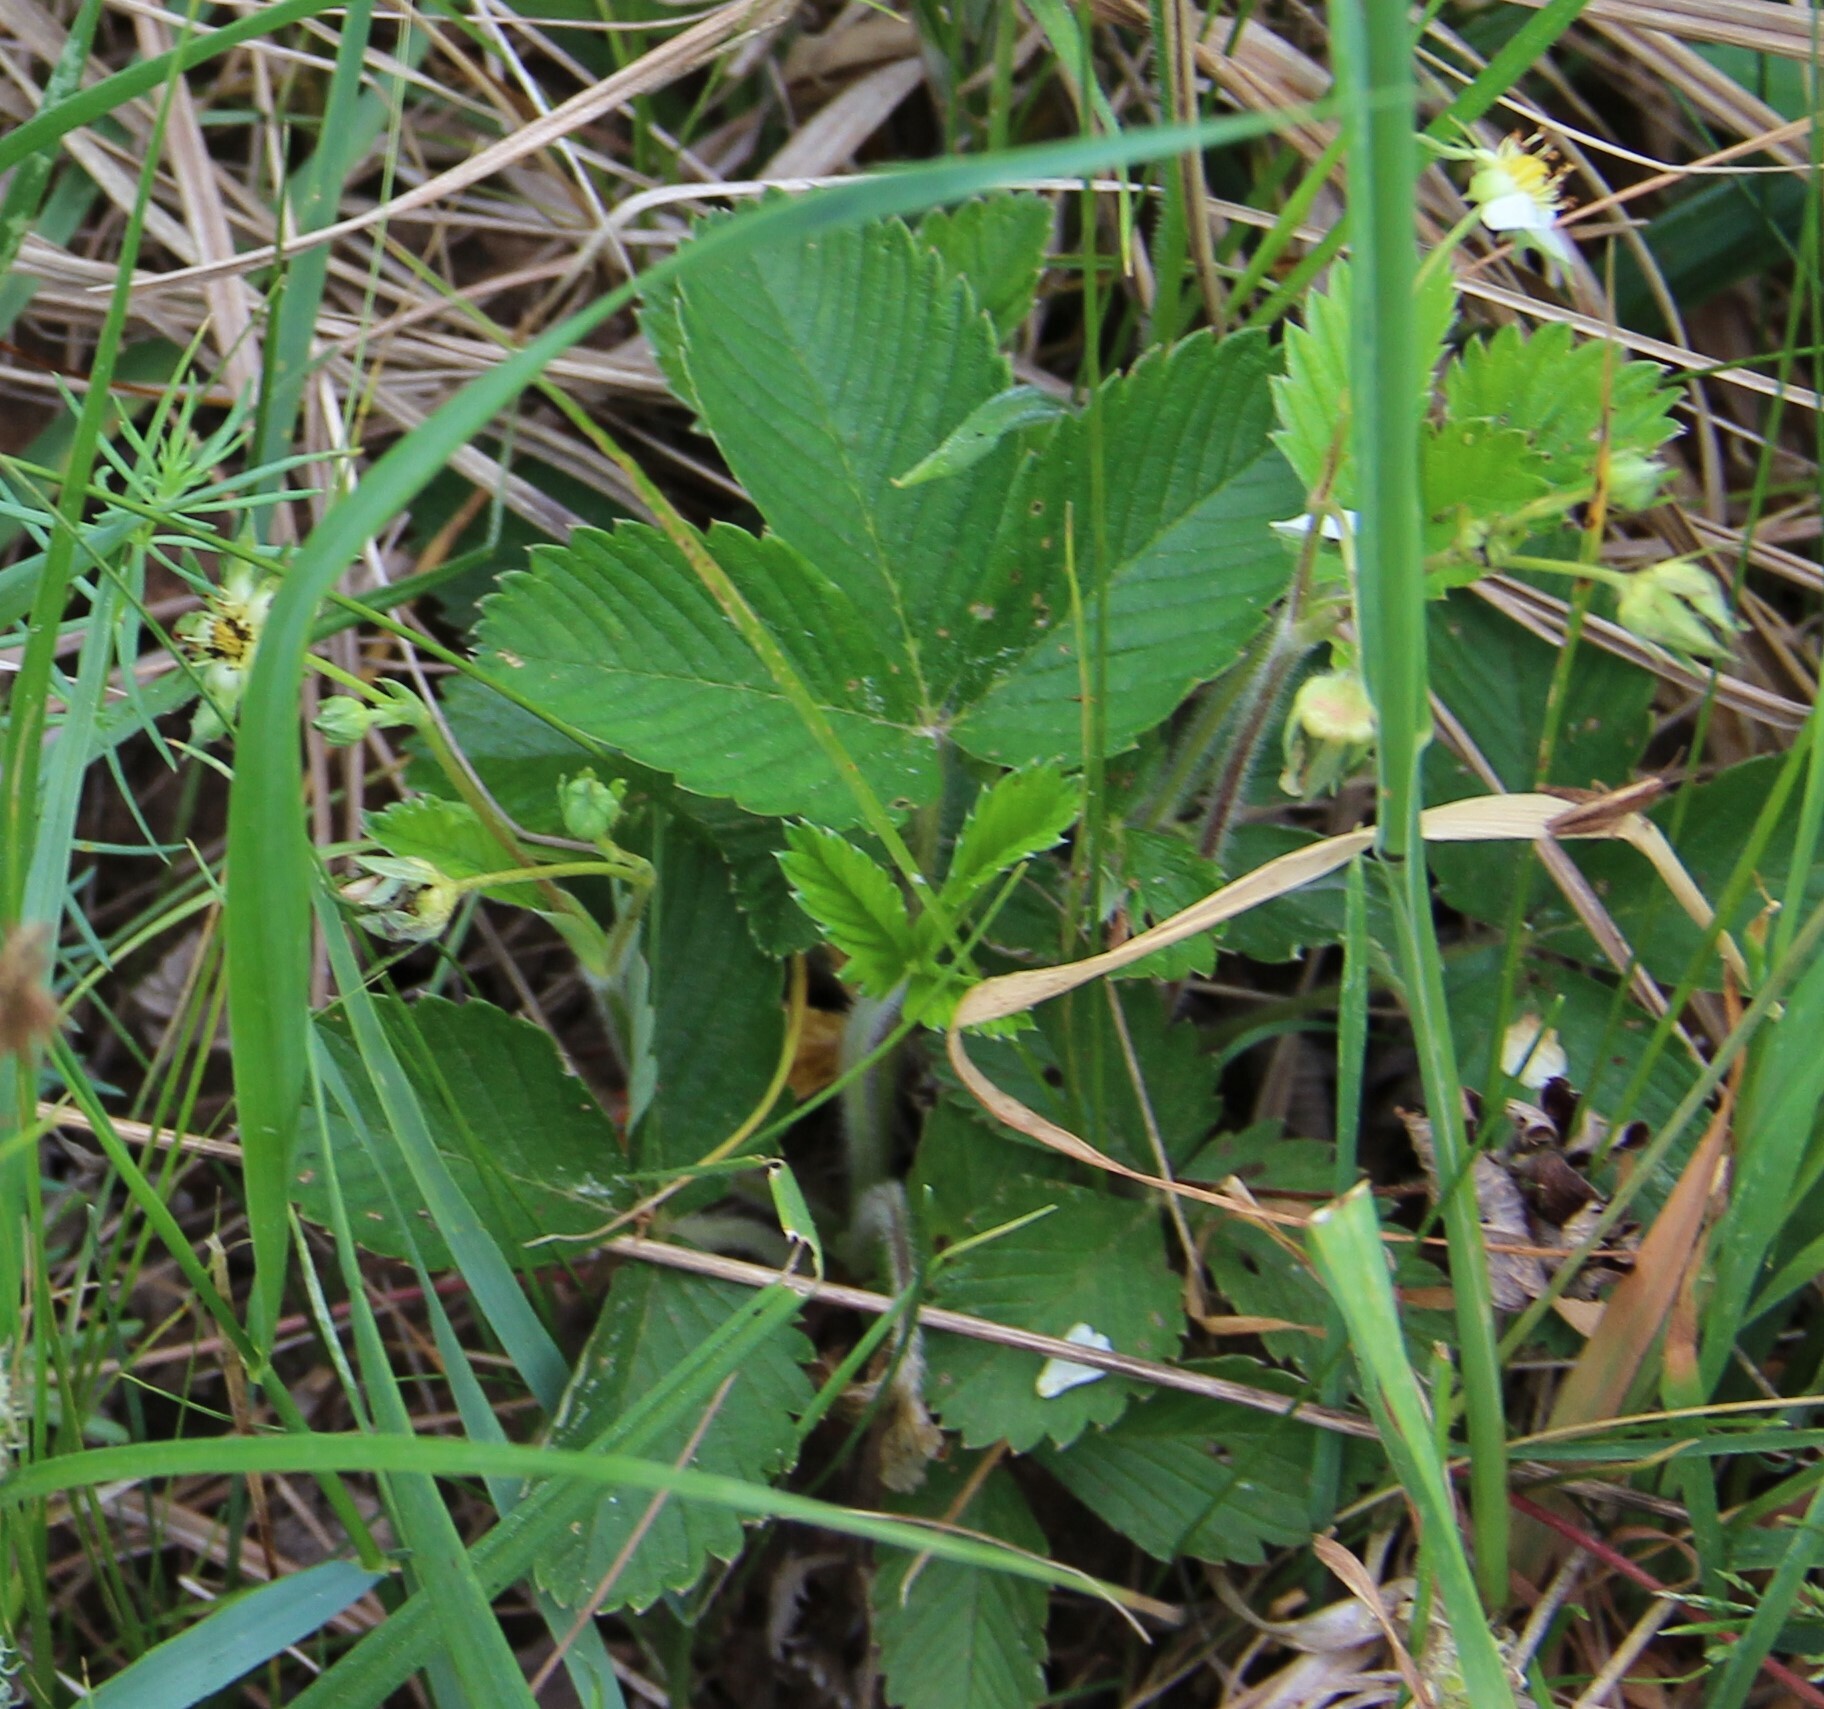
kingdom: Plantae
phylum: Tracheophyta
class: Magnoliopsida
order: Rosales
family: Rosaceae
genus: Fragaria
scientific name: Fragaria viridis
